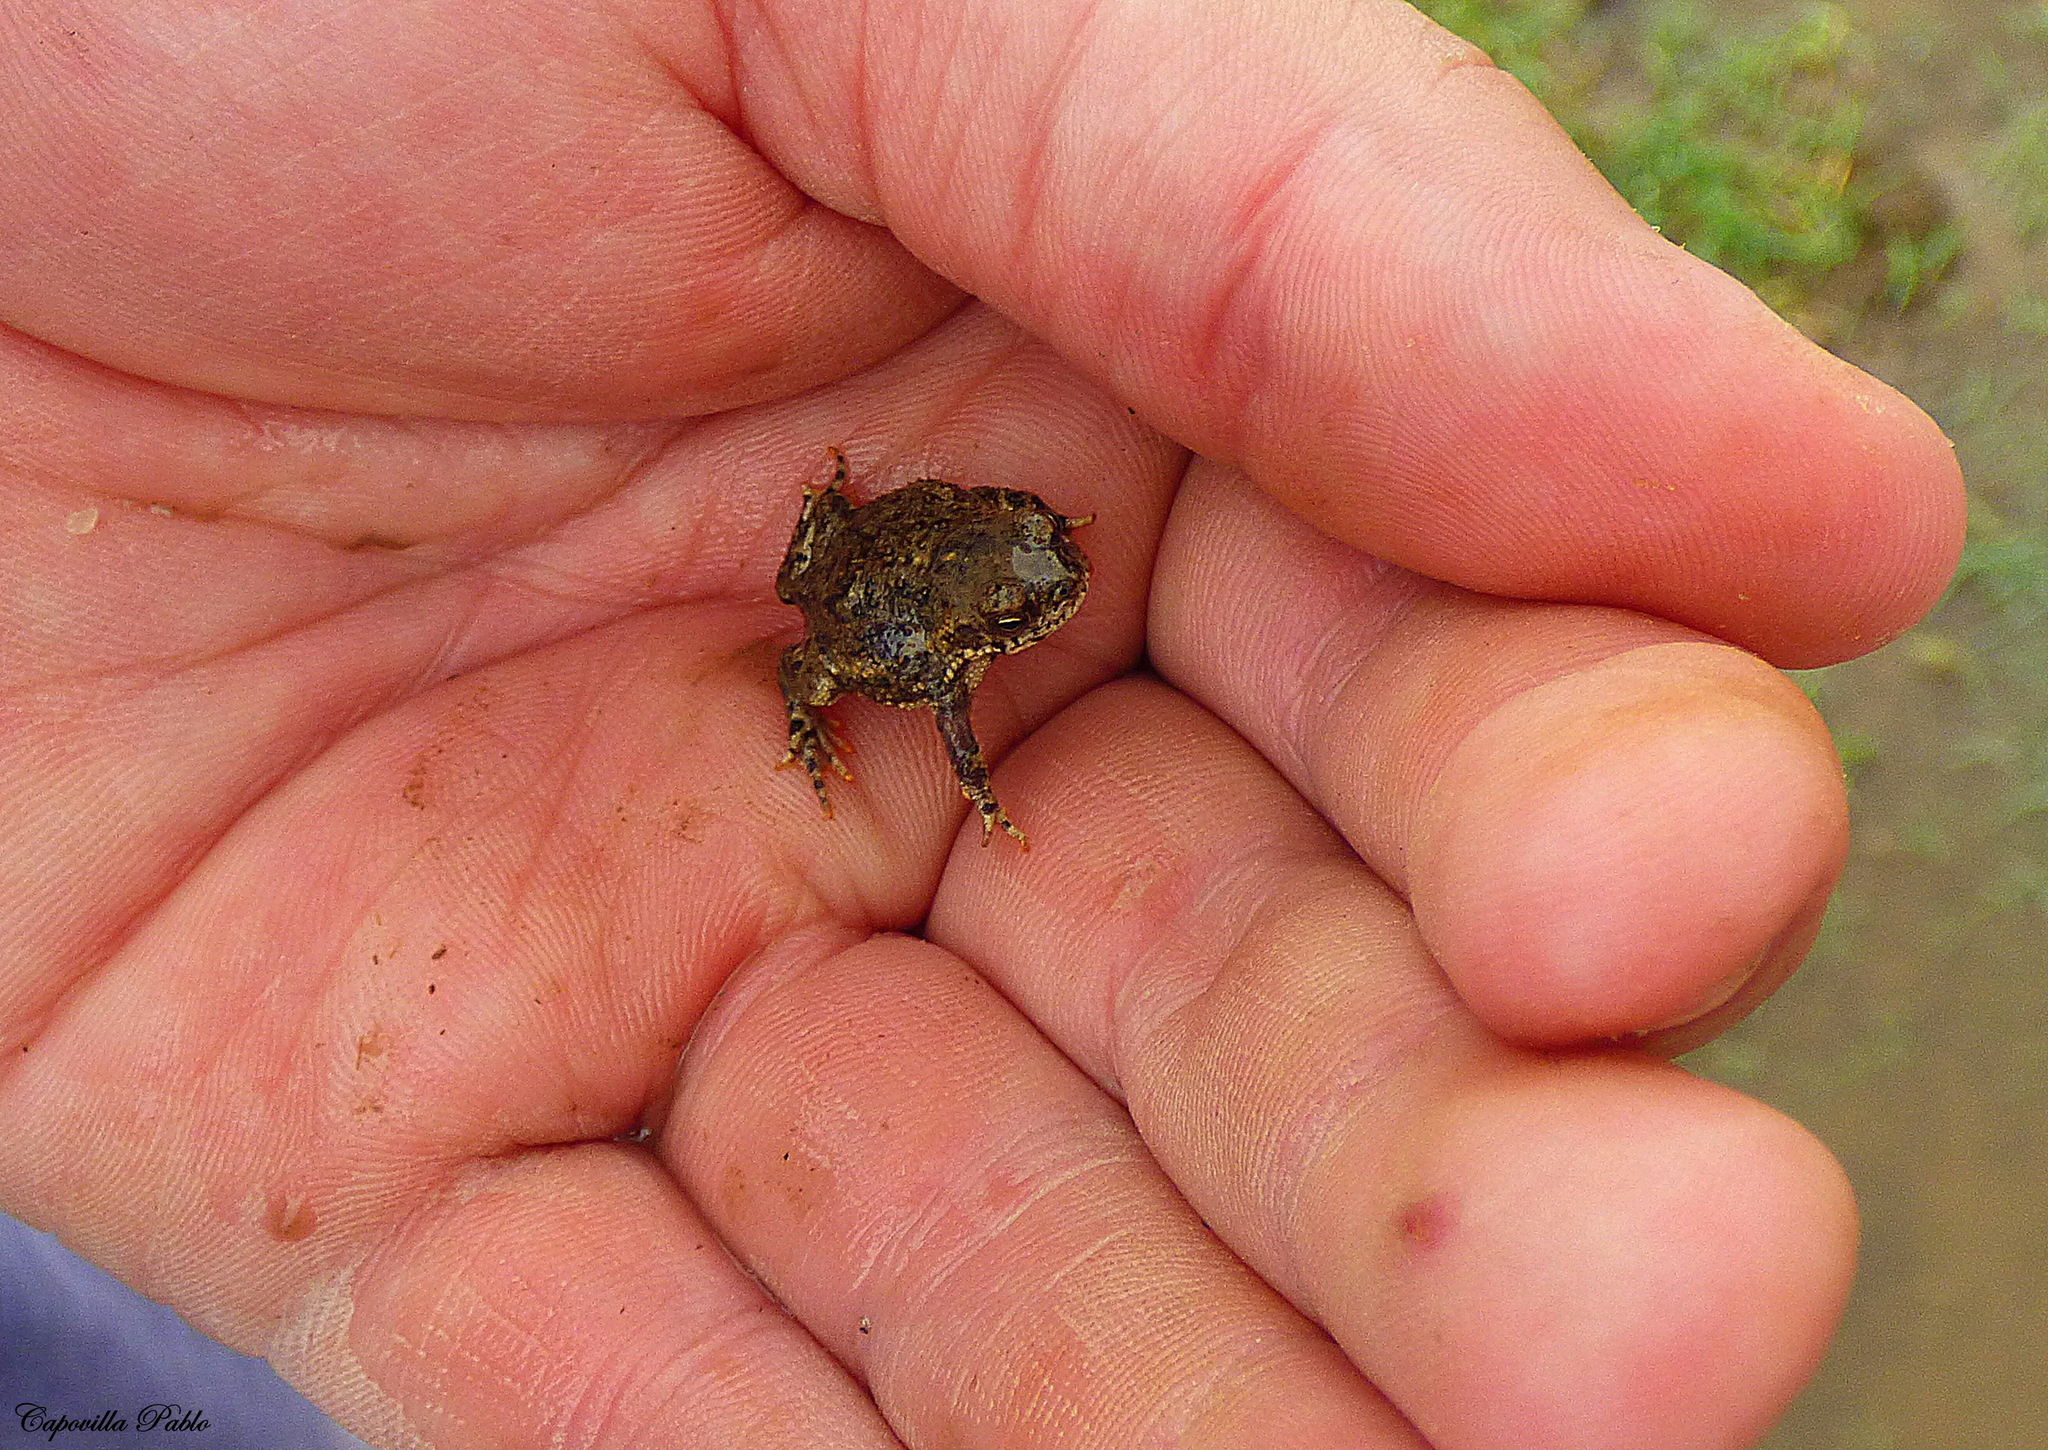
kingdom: Animalia
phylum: Chordata
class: Amphibia
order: Anura
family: Bufonidae
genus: Rhinella
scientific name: Rhinella dorbignyi
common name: D´orbigny’s toad
